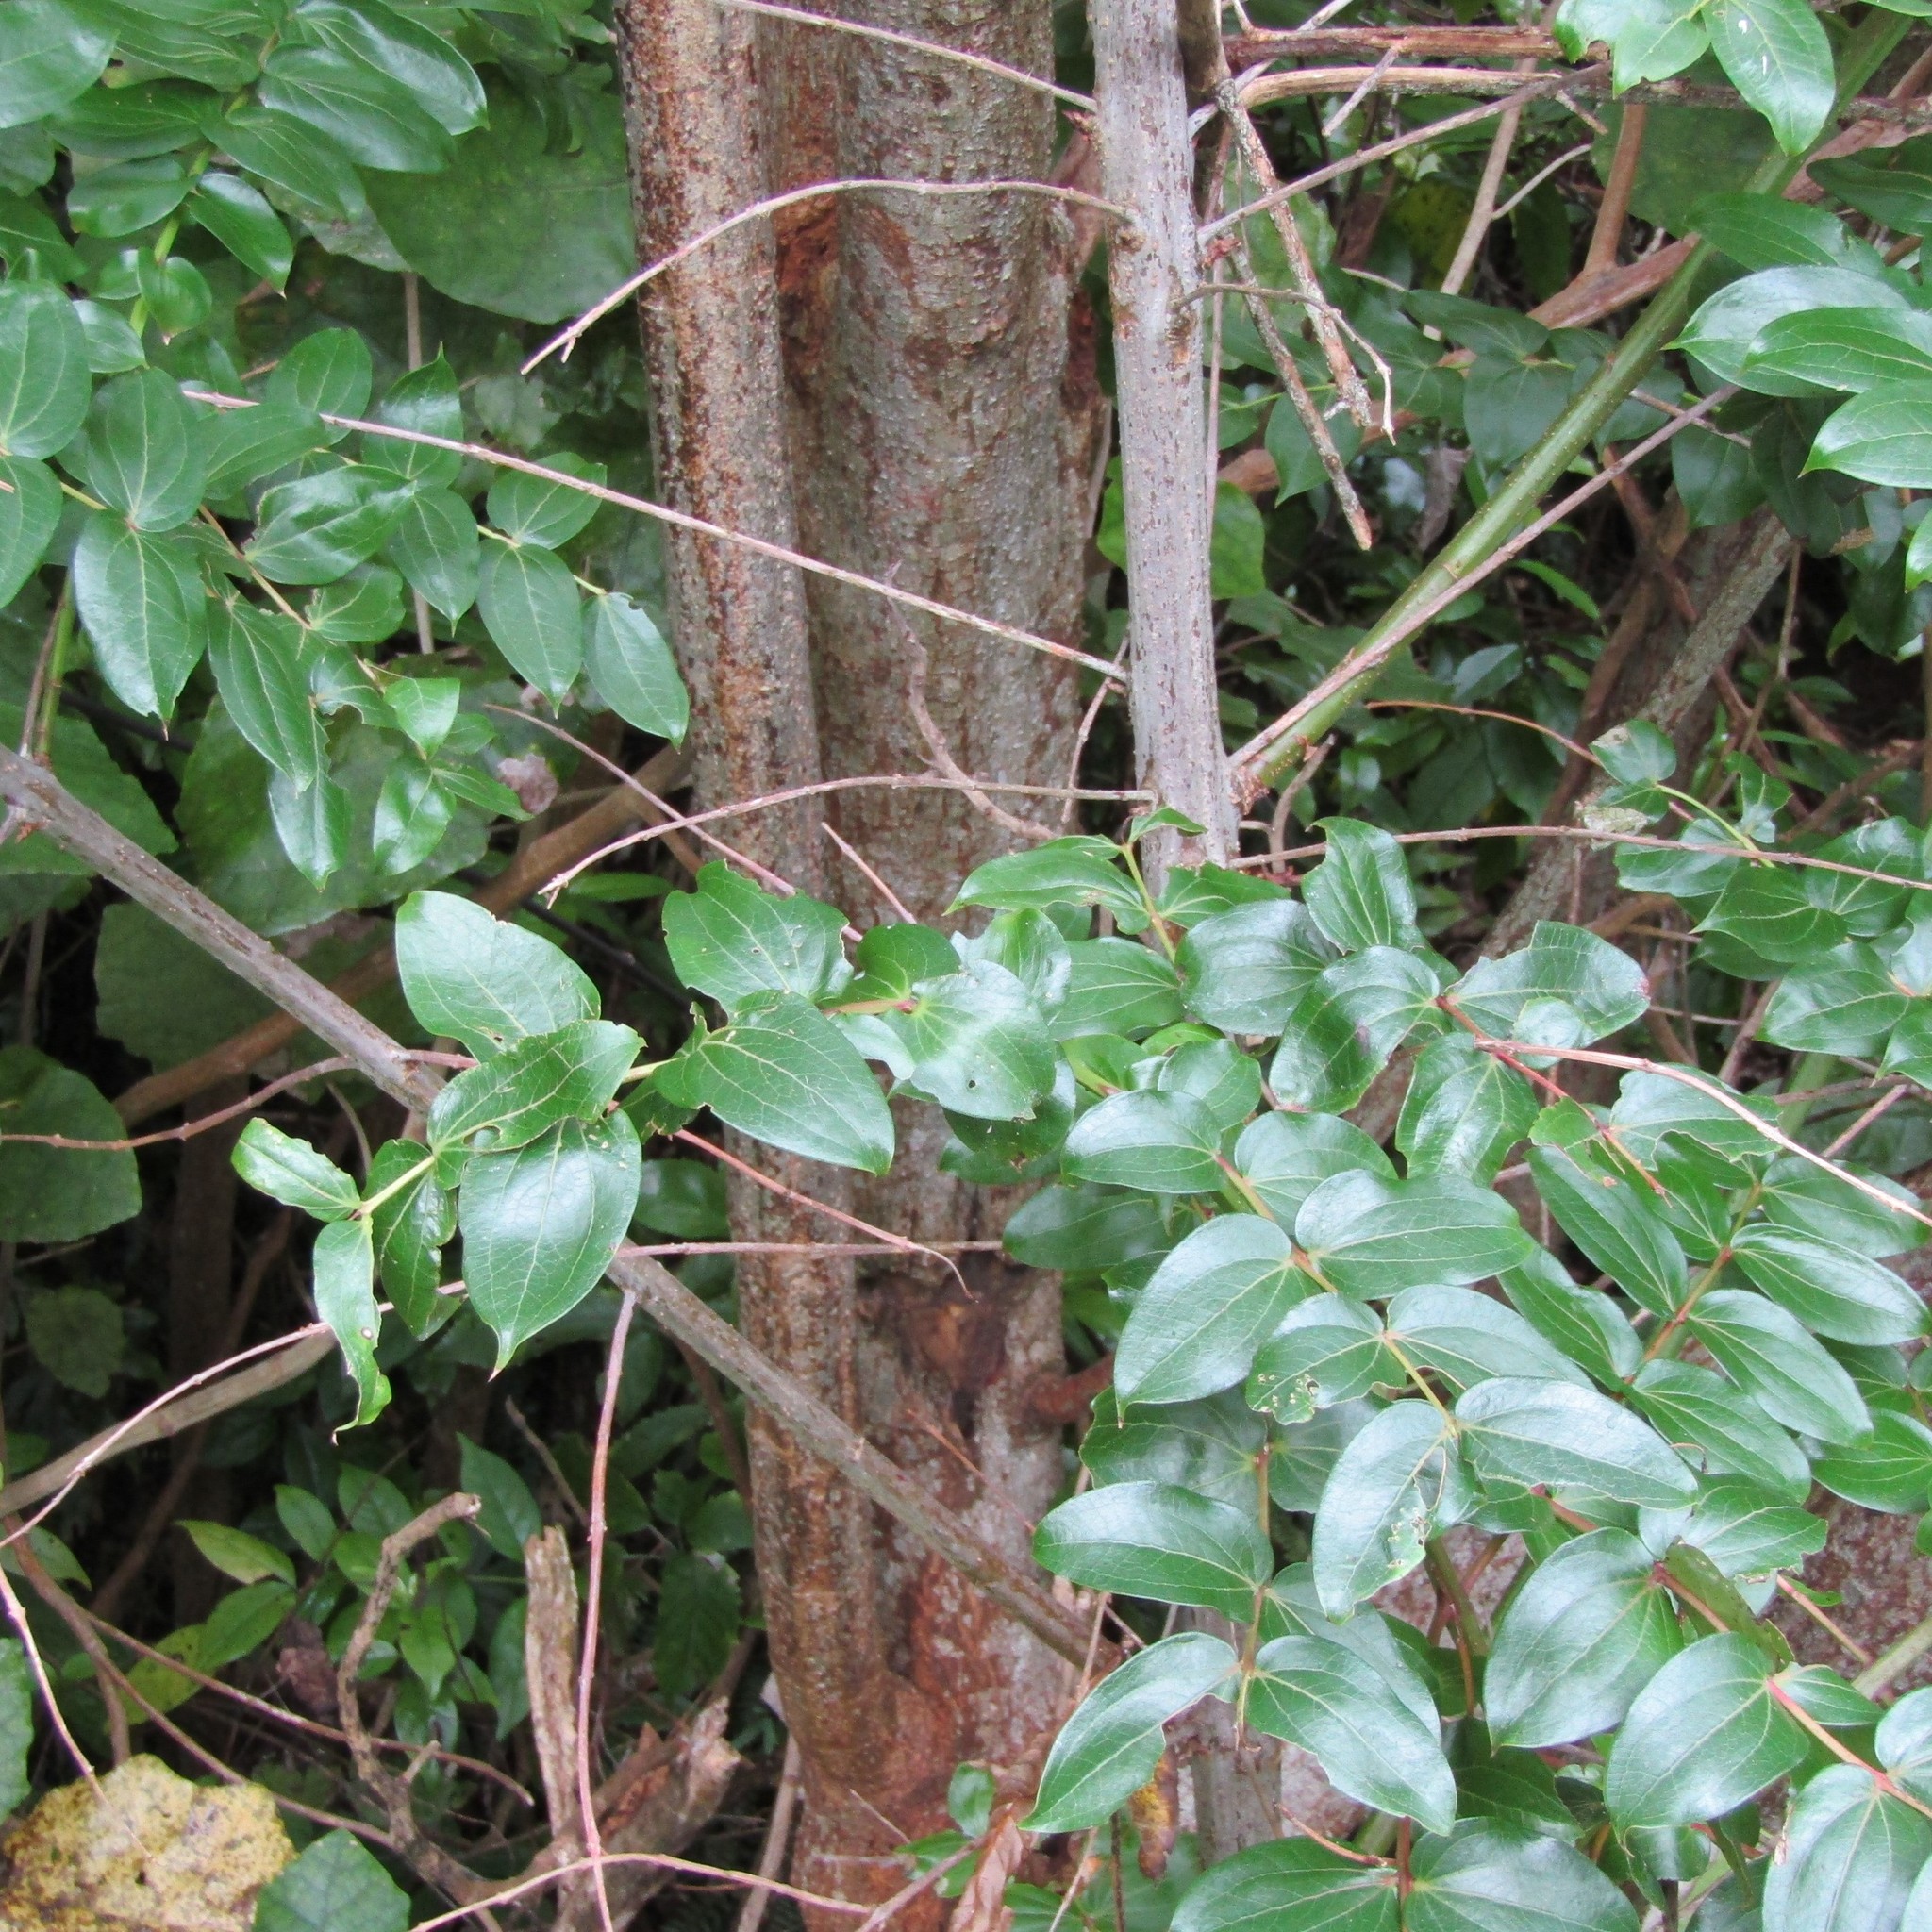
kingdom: Animalia
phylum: Arthropoda
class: Insecta
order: Lepidoptera
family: Hepialidae
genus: Aenetus
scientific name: Aenetus virescens
